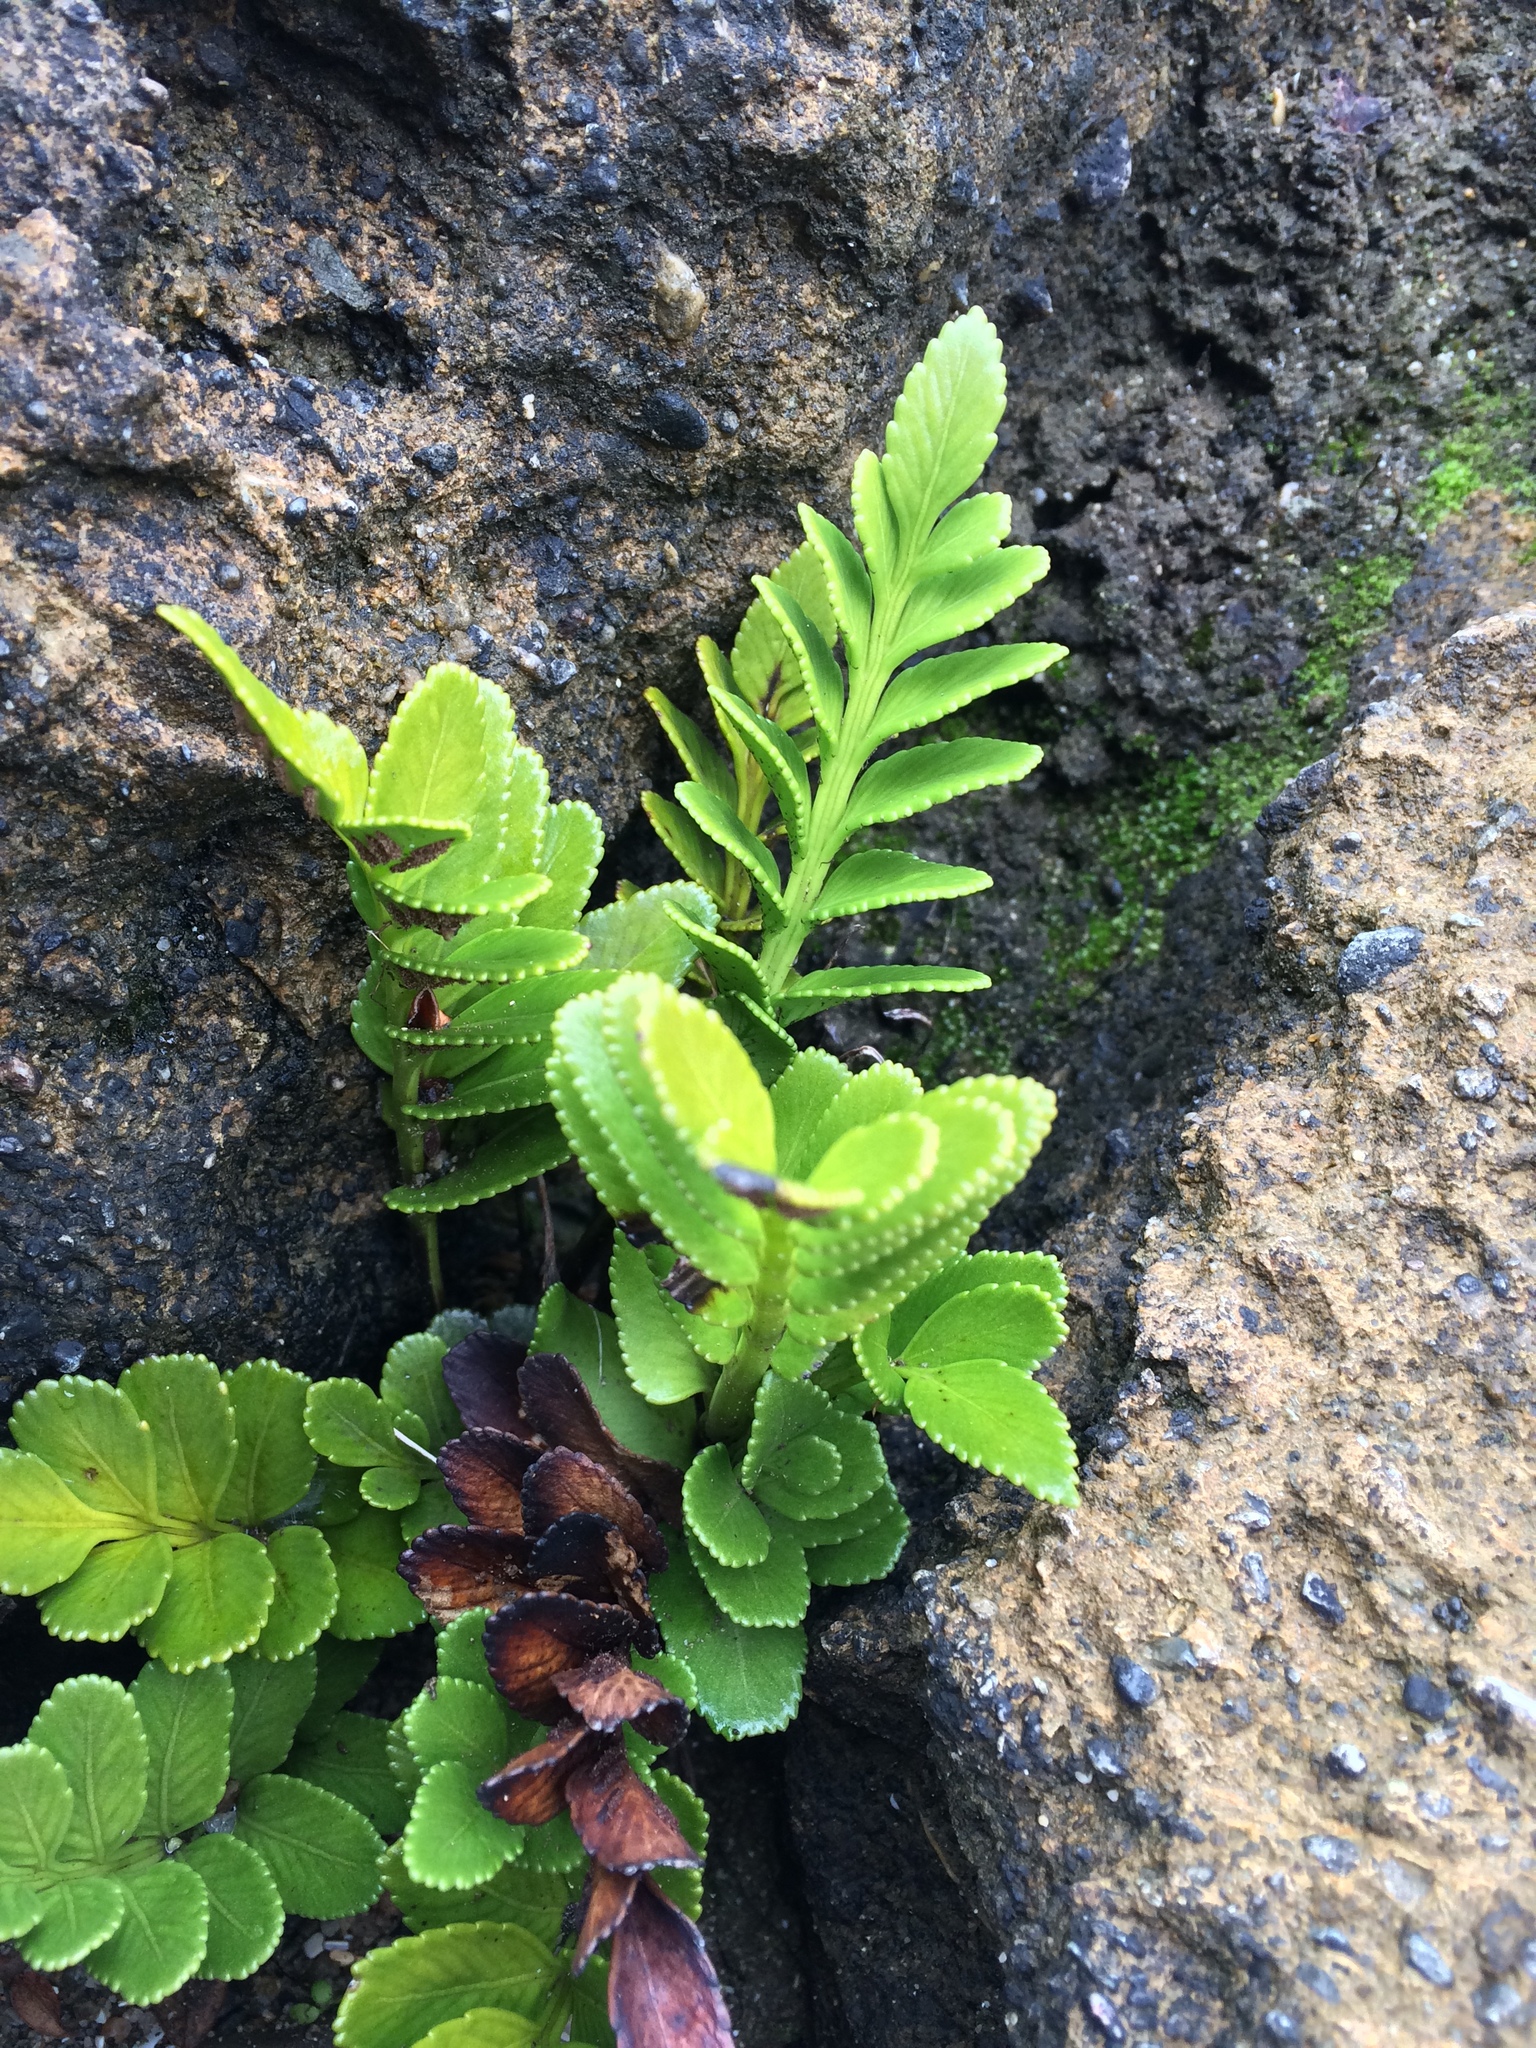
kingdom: Plantae
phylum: Tracheophyta
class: Polypodiopsida
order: Polypodiales
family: Aspleniaceae
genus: Asplenium
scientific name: Asplenium obtusatum
